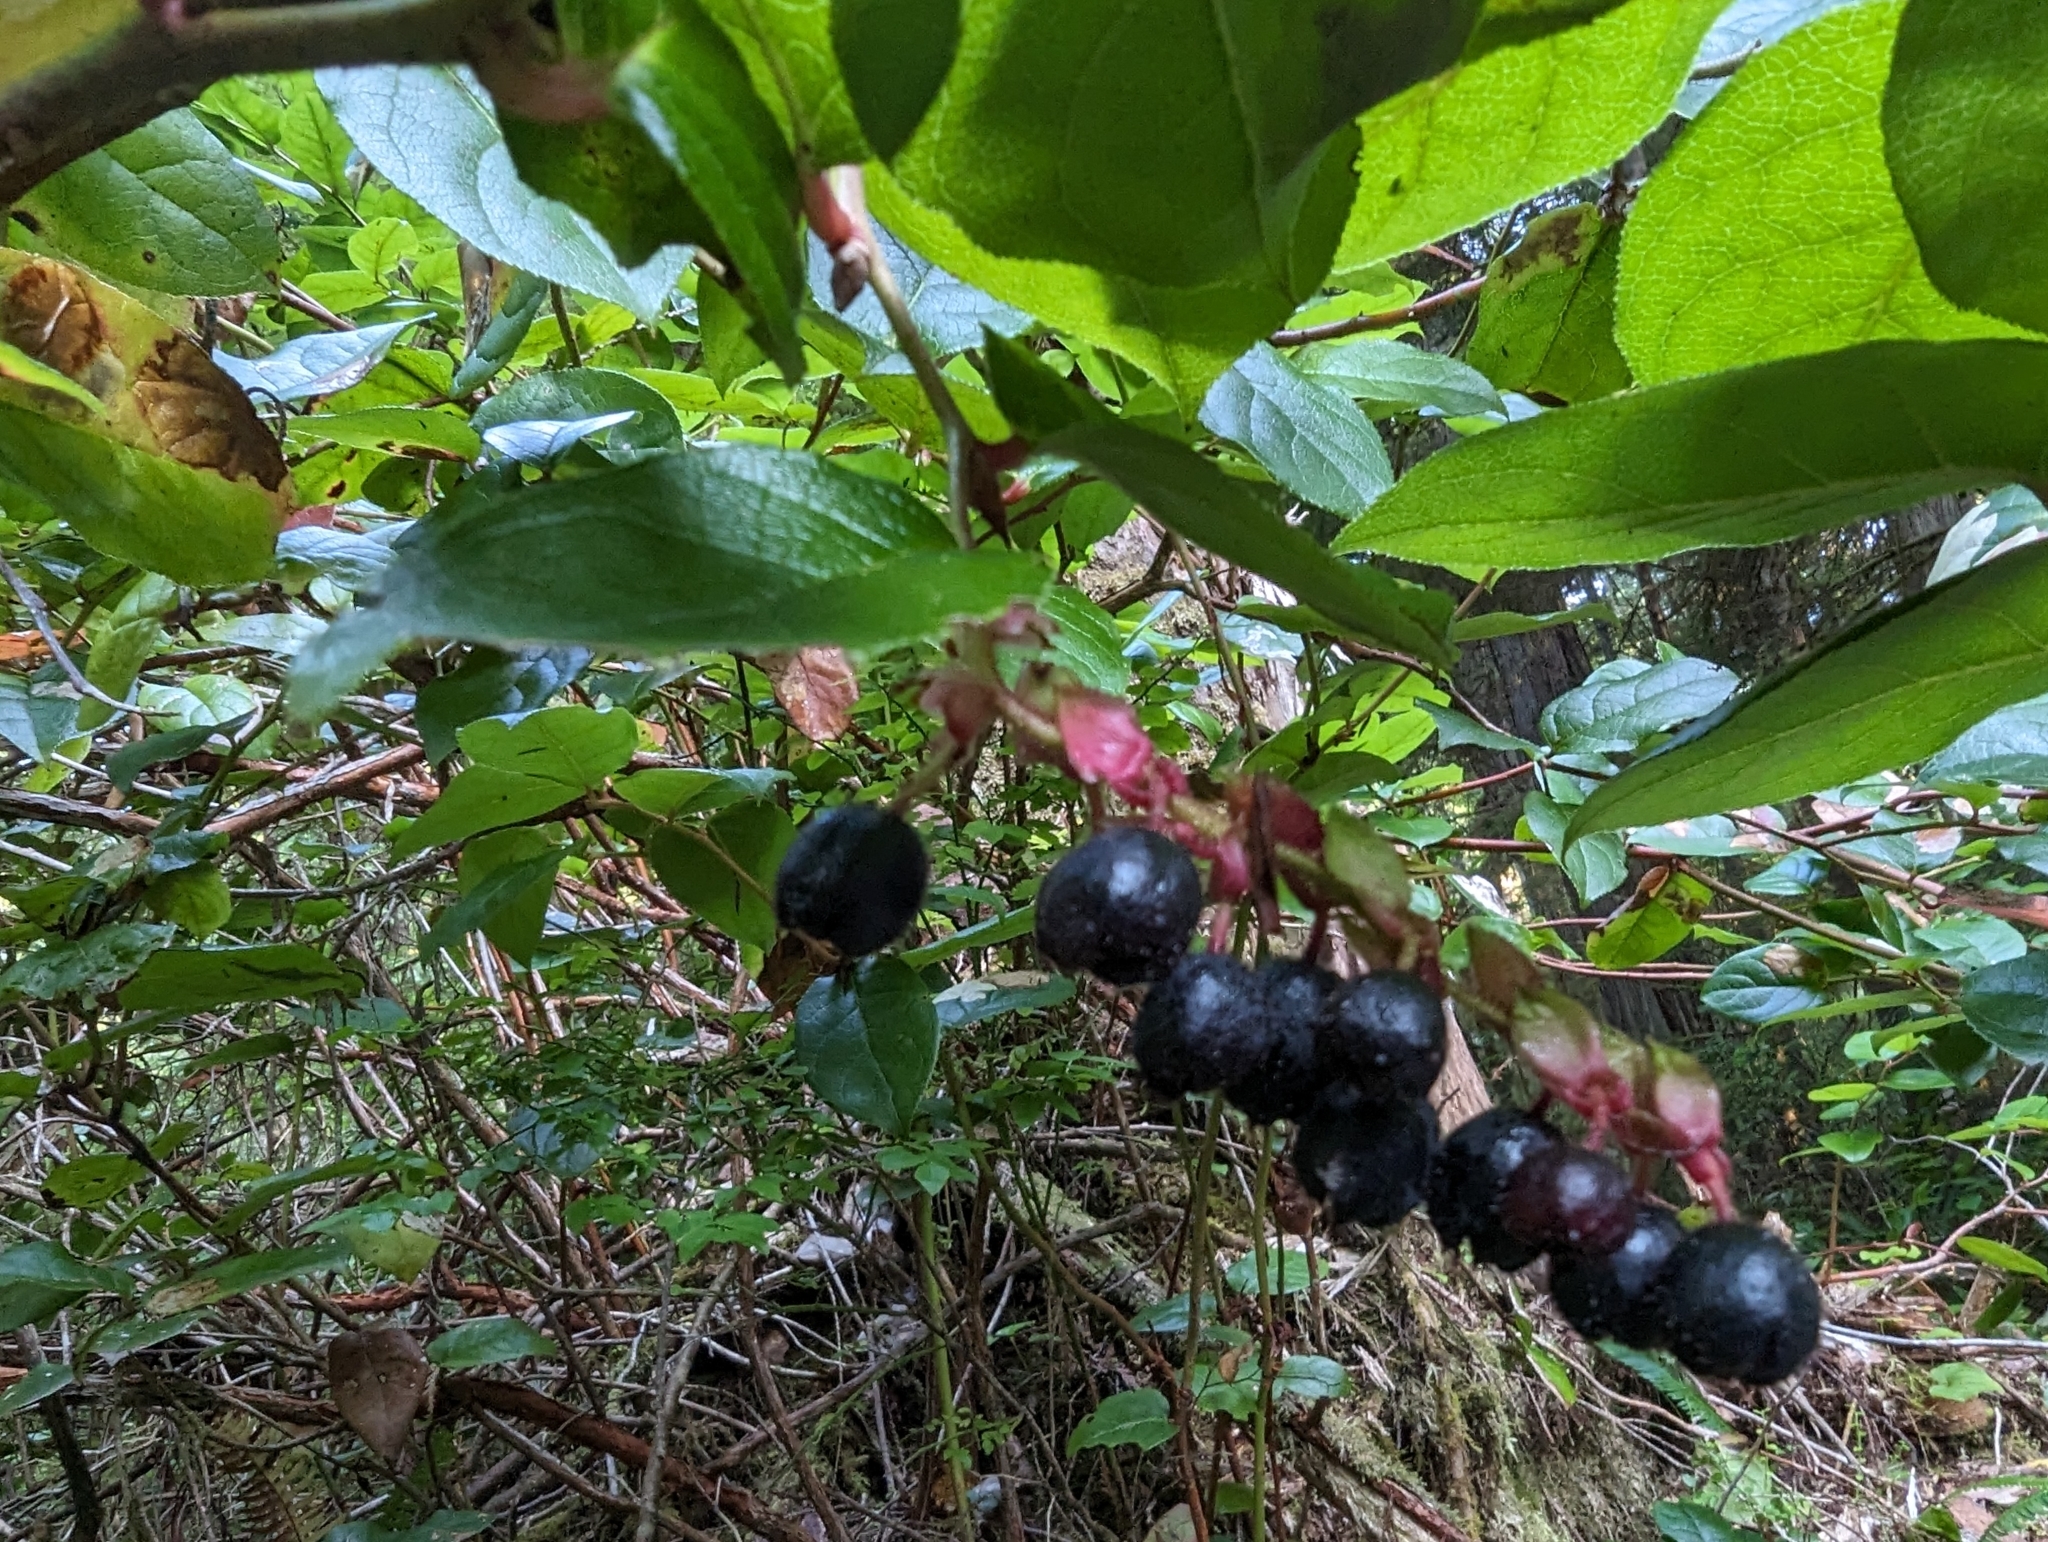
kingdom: Plantae
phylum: Tracheophyta
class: Magnoliopsida
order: Ericales
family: Ericaceae
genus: Gaultheria
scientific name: Gaultheria shallon
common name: Shallon
